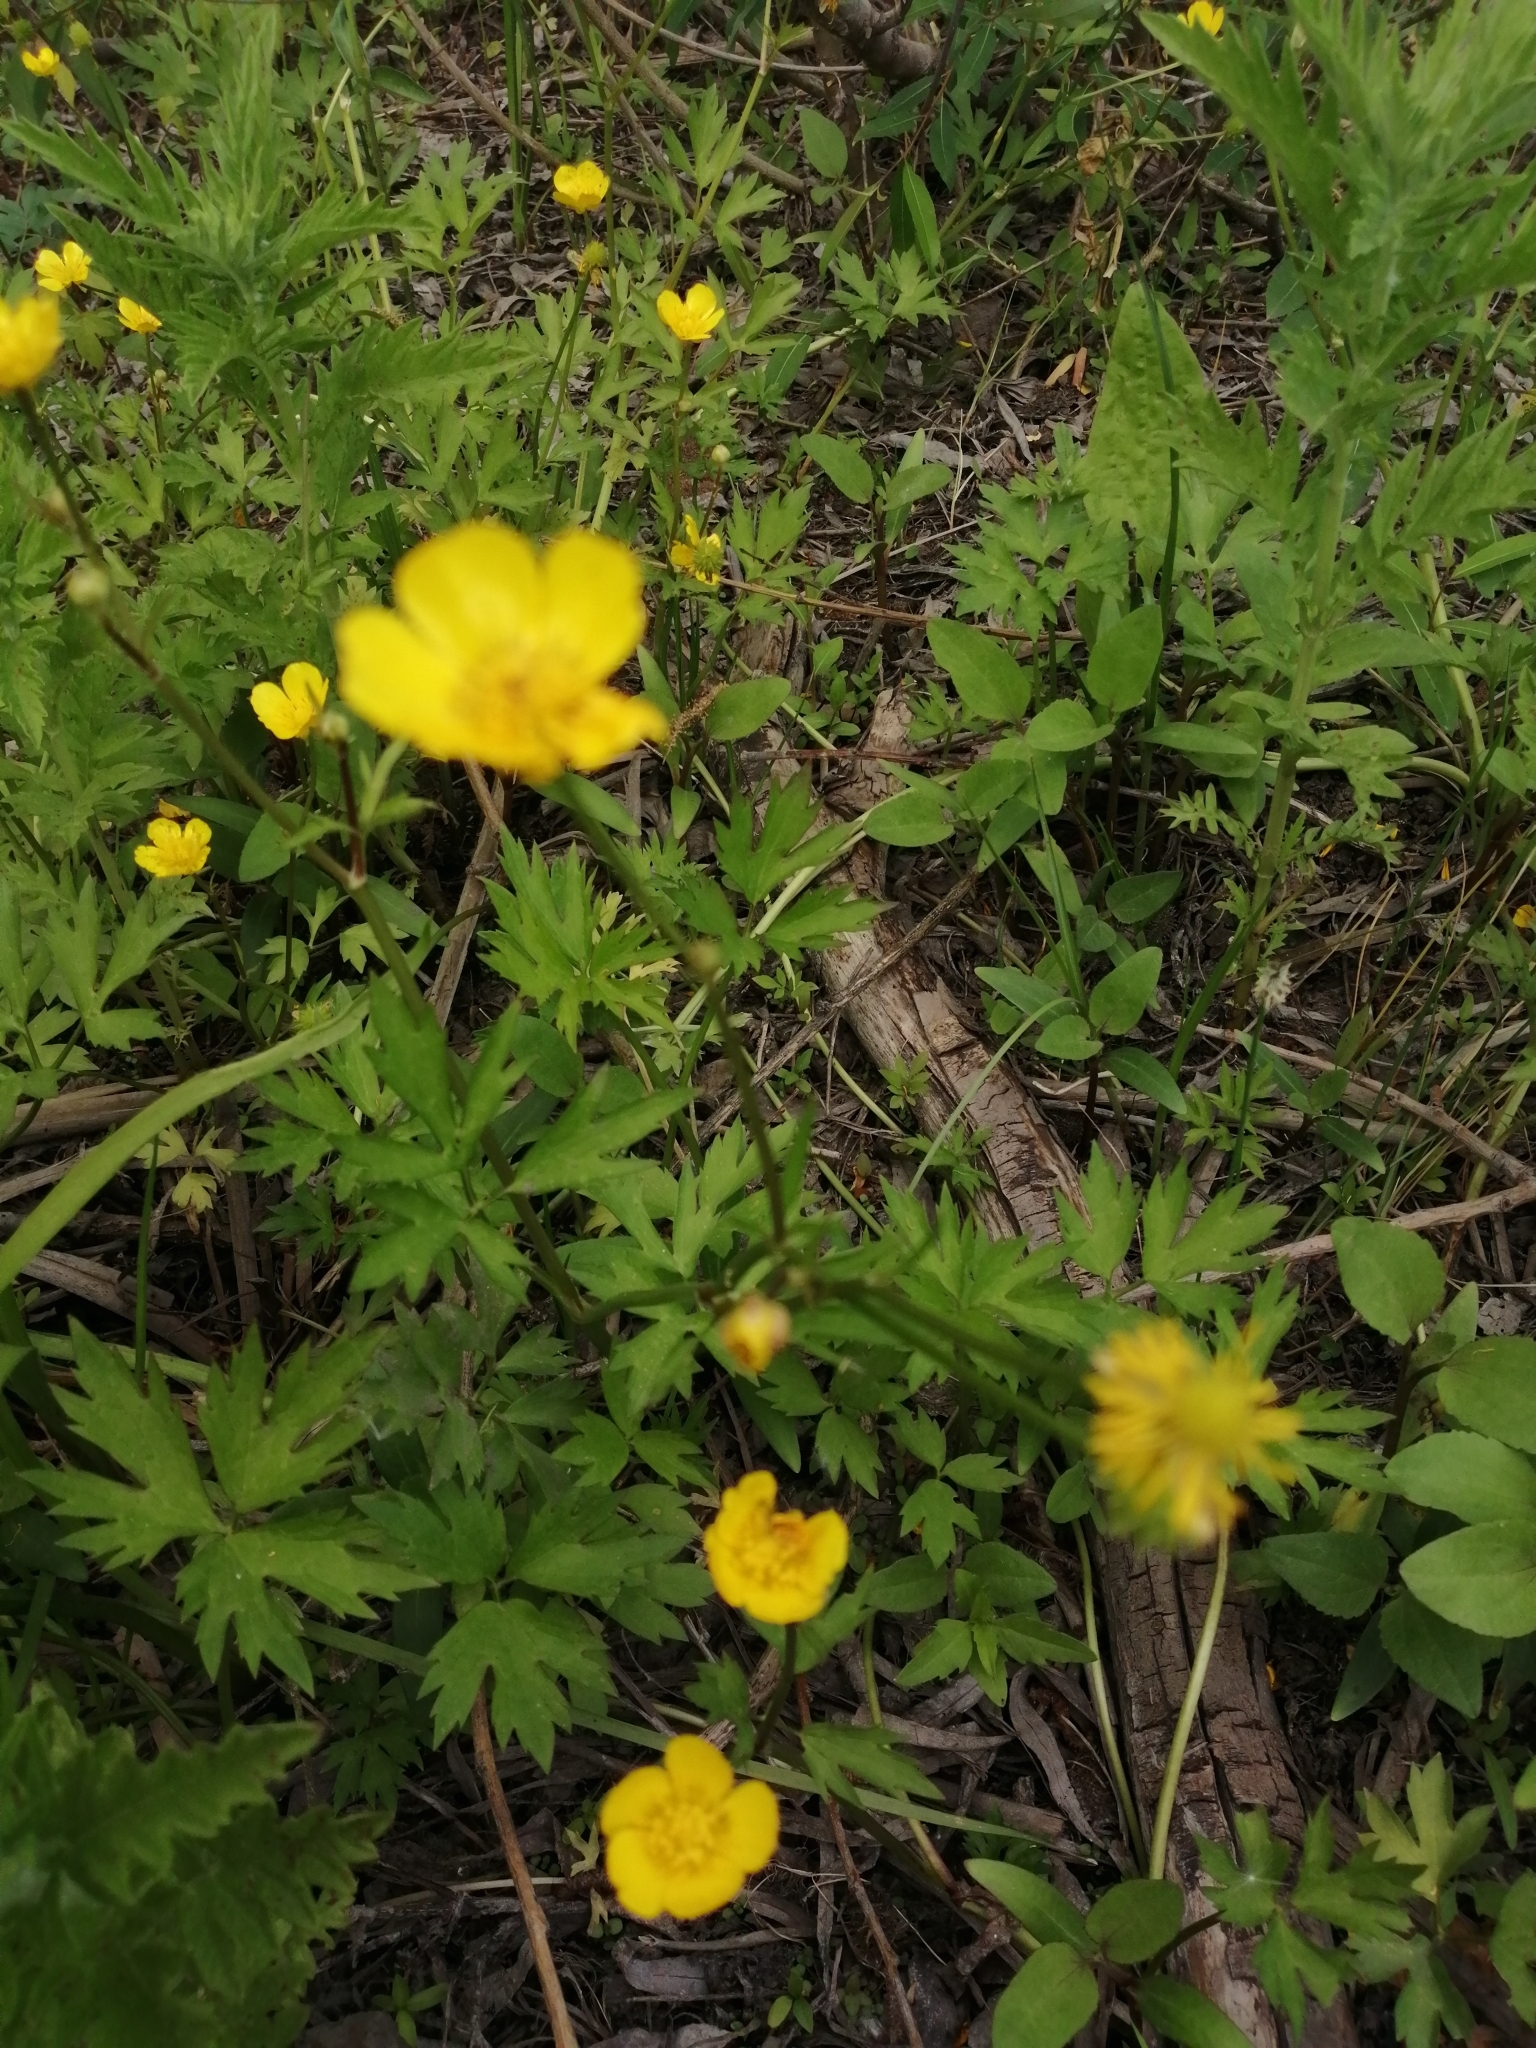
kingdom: Plantae
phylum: Tracheophyta
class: Magnoliopsida
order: Ranunculales
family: Ranunculaceae
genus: Ranunculus
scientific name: Ranunculus repens
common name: Creeping buttercup
